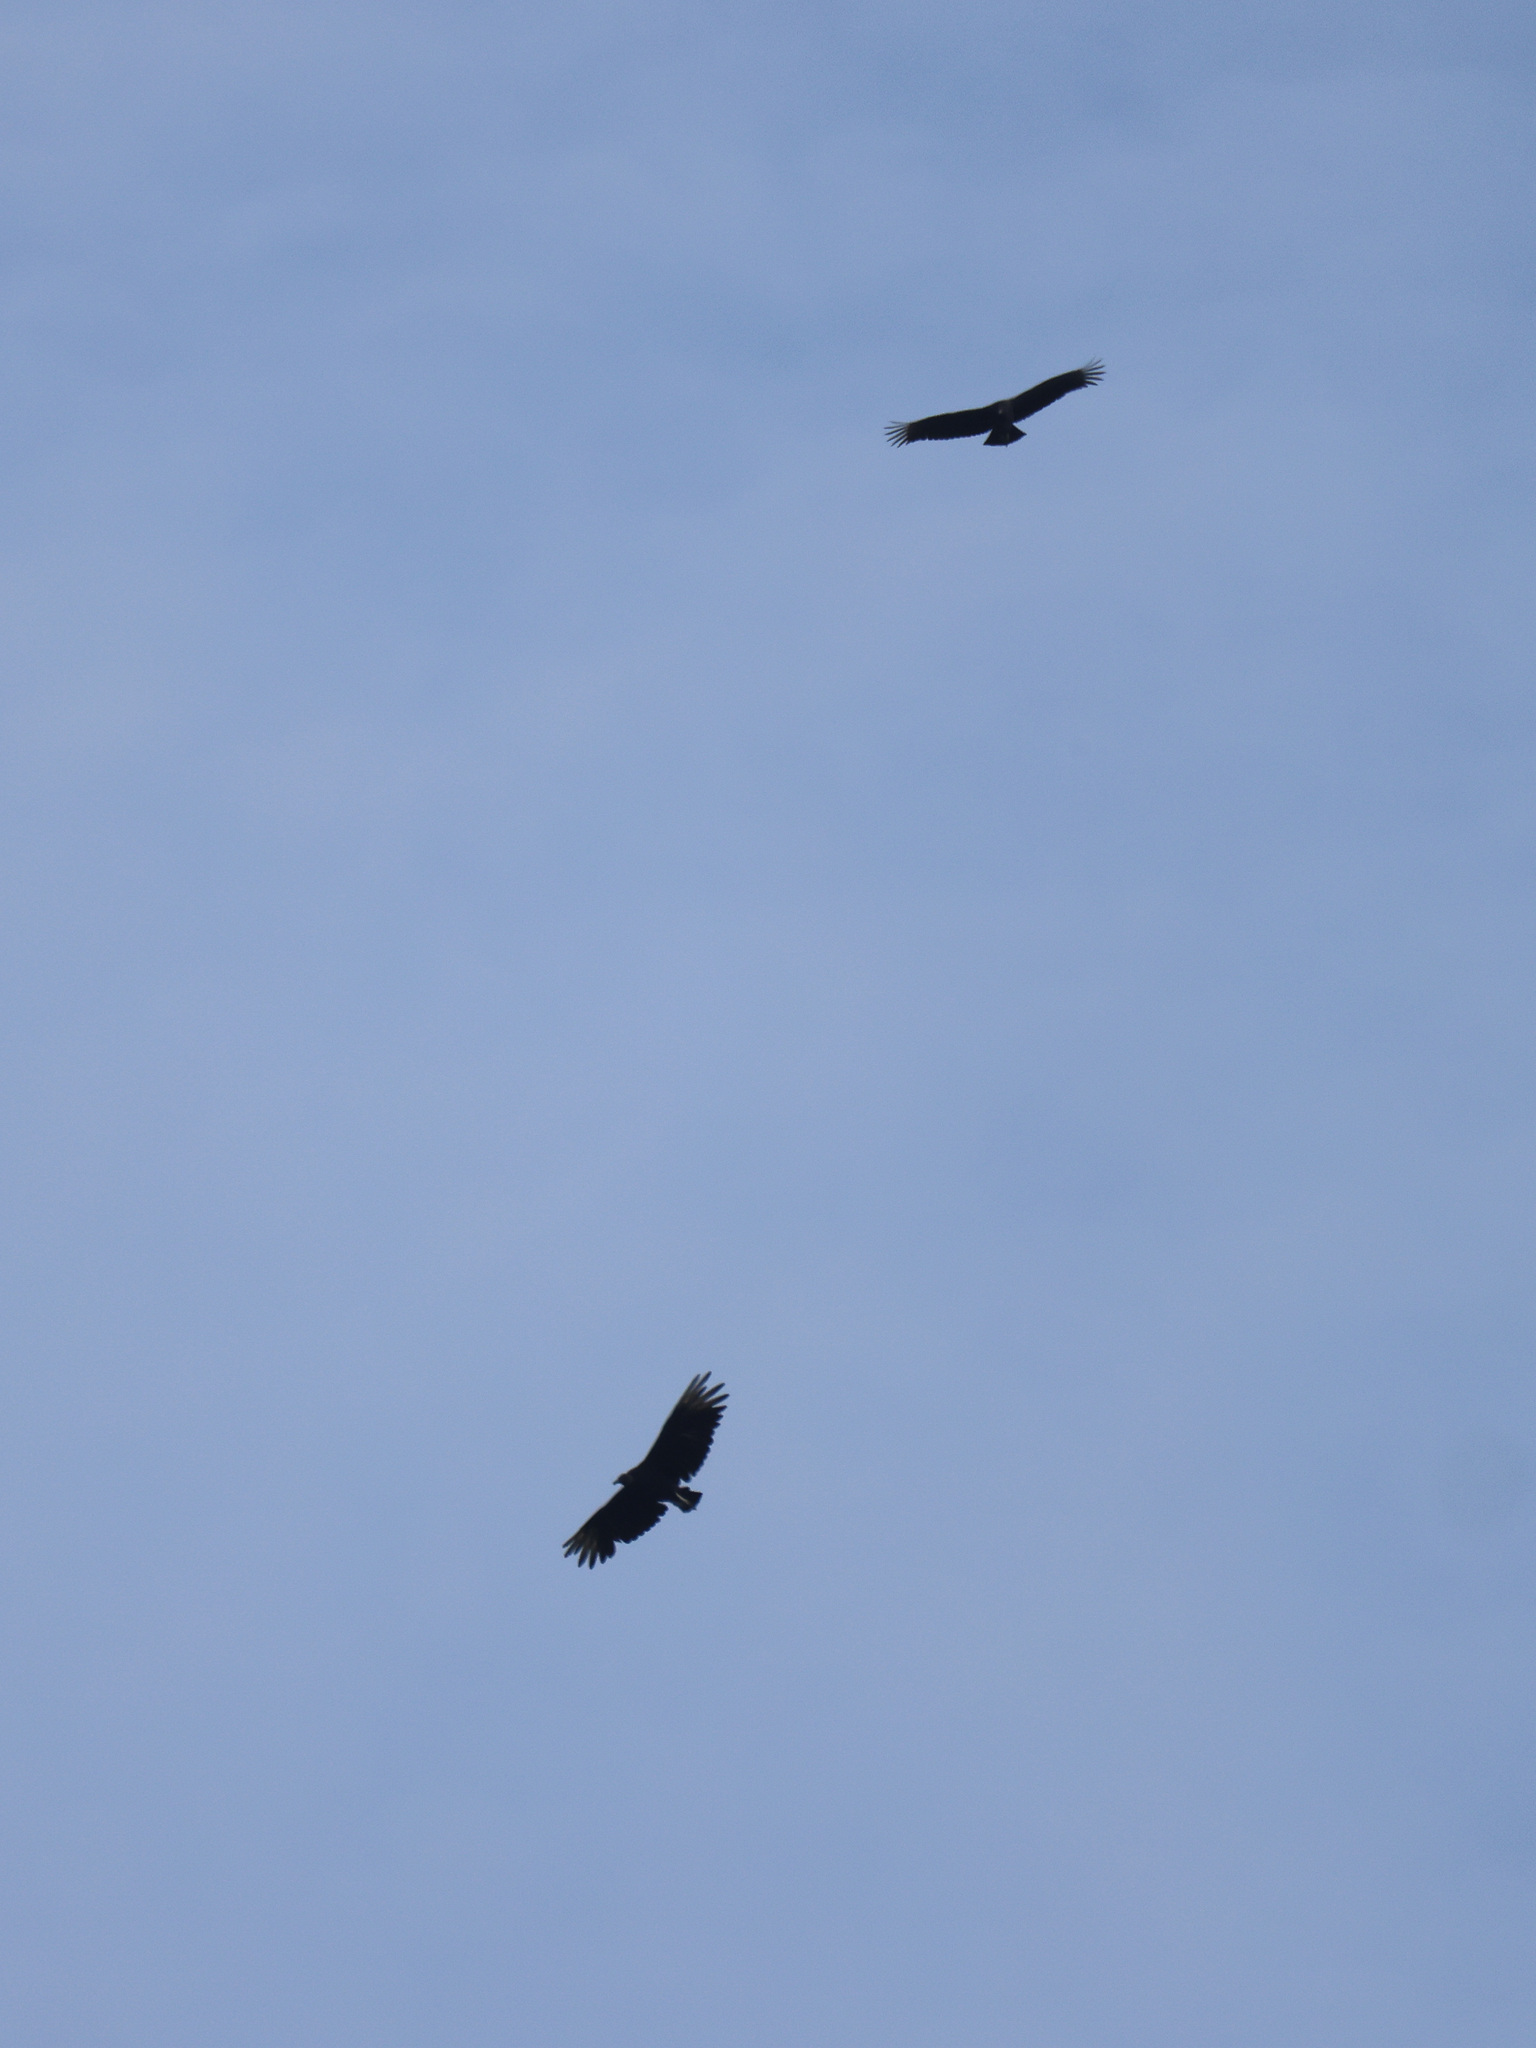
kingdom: Animalia
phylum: Chordata
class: Aves
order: Accipitriformes
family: Cathartidae
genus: Coragyps
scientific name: Coragyps atratus
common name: Black vulture
